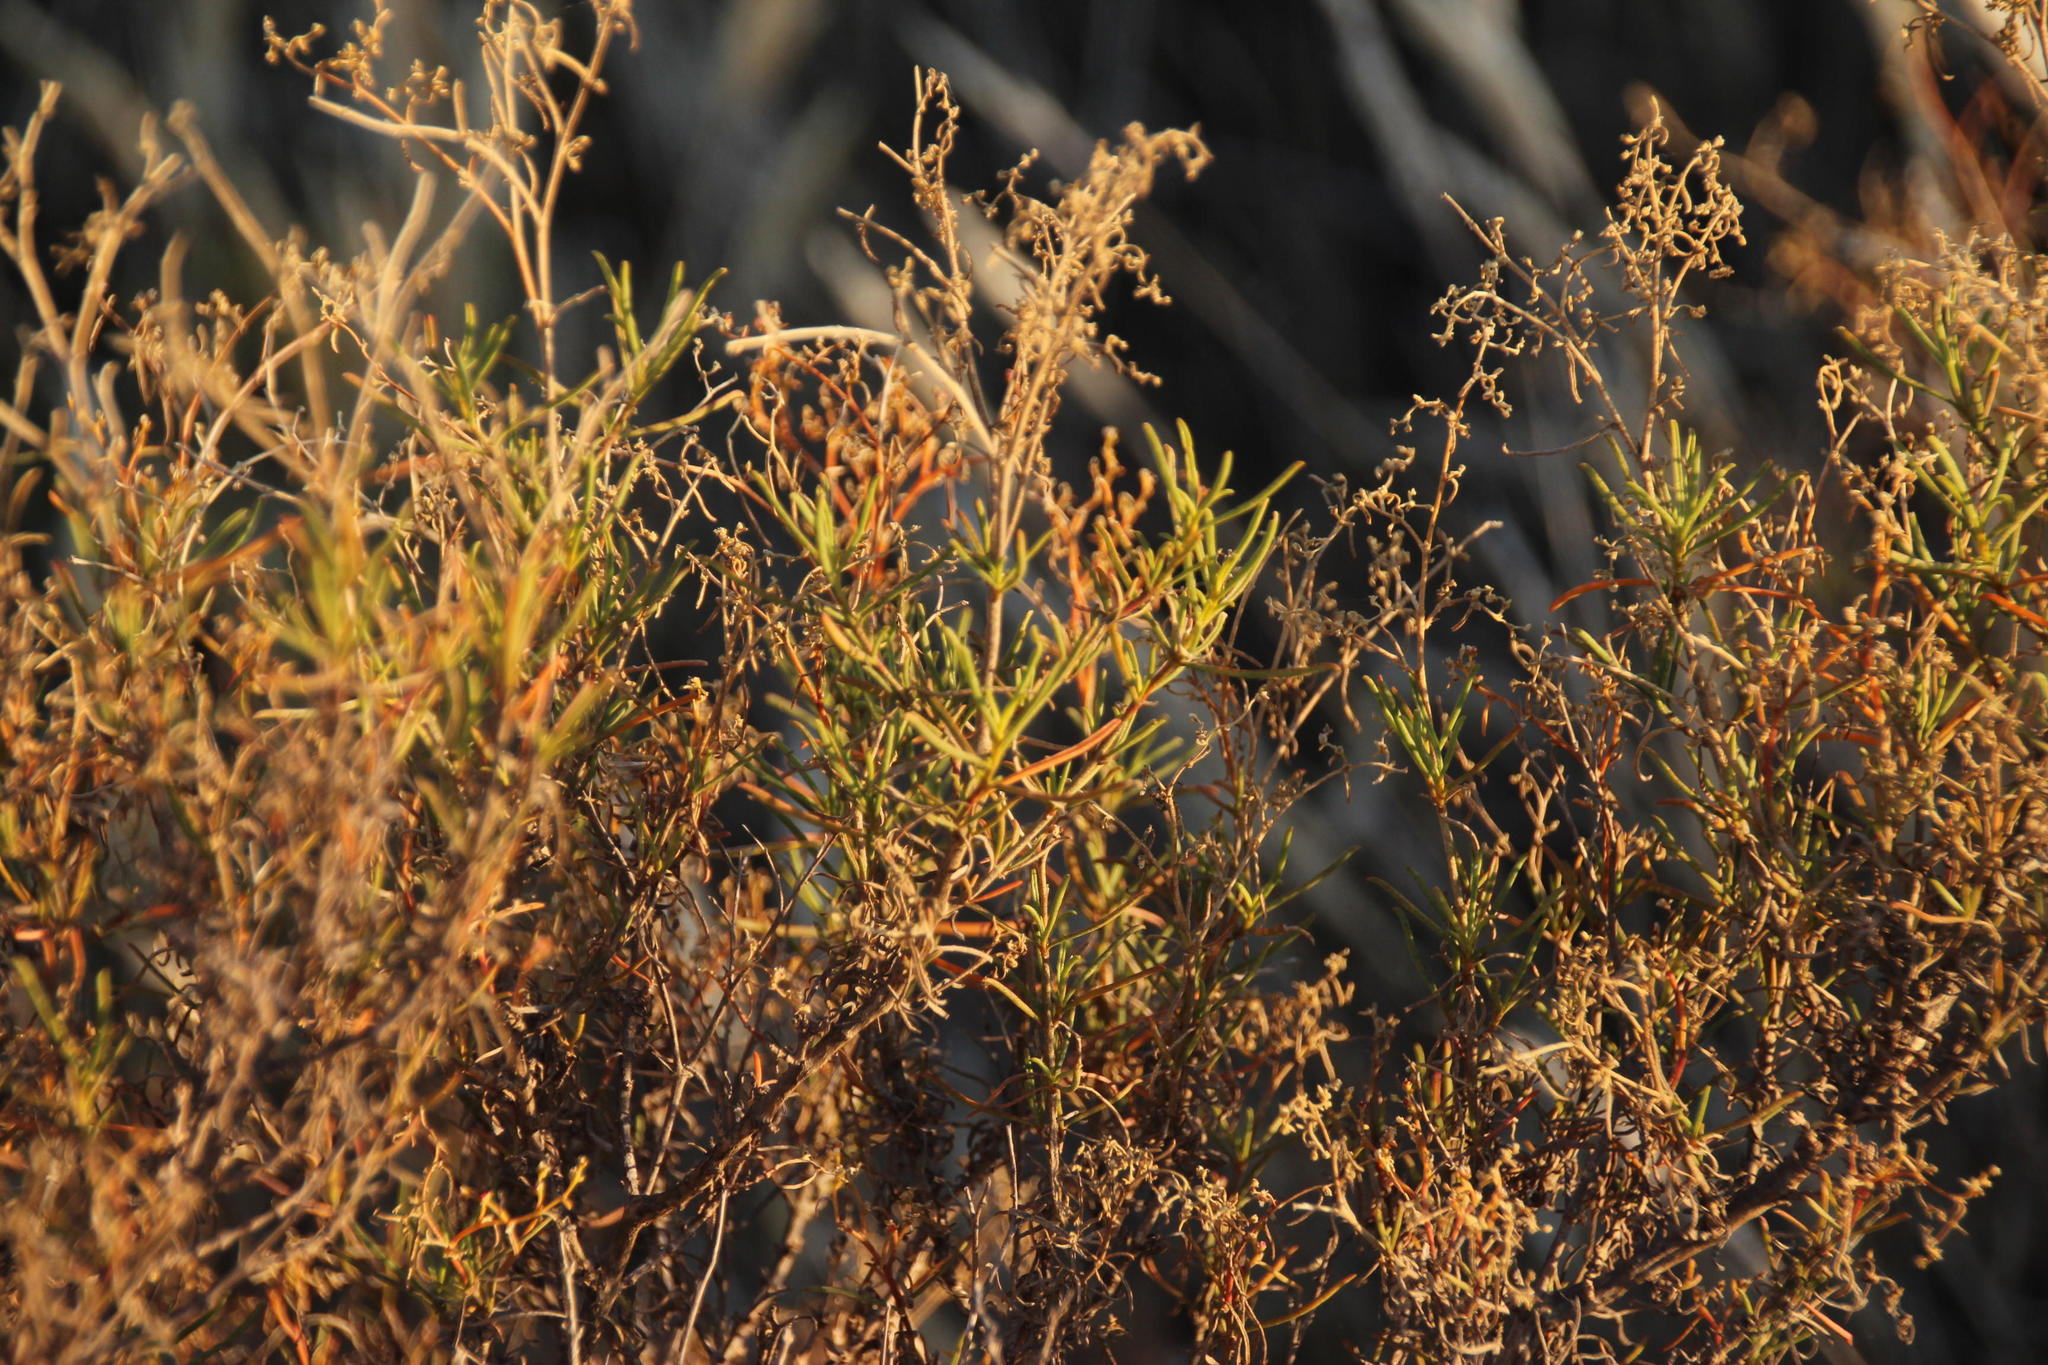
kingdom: Plantae
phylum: Tracheophyta
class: Magnoliopsida
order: Caryophyllales
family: Aizoaceae
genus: Aizoon
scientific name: Aizoon africanum
